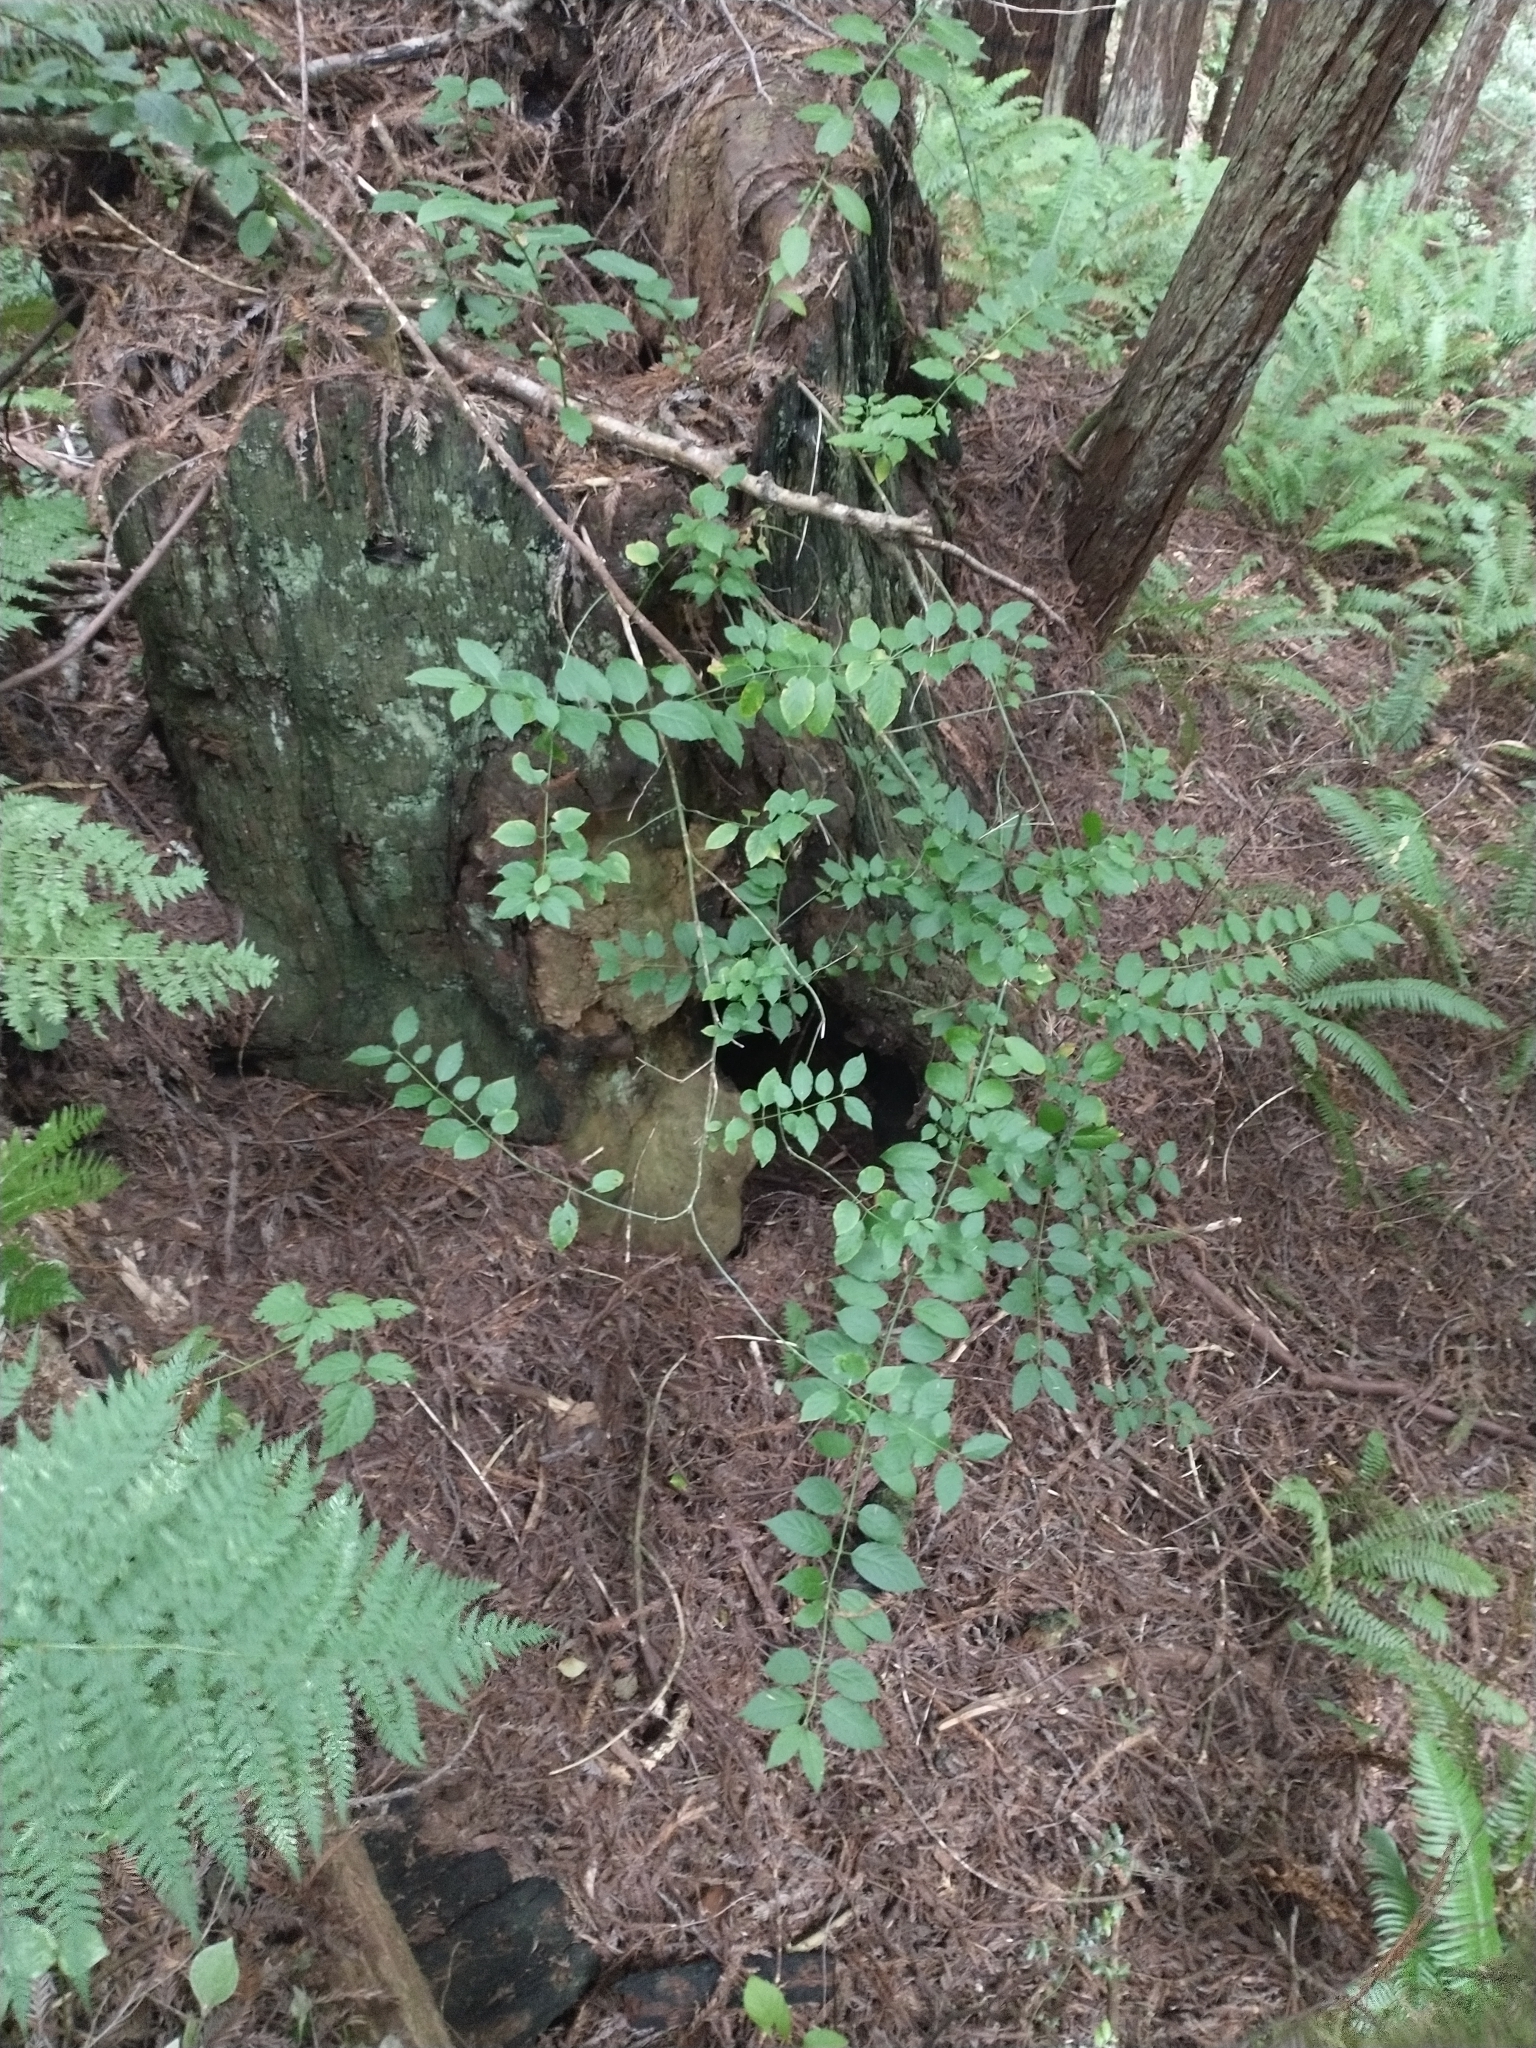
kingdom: Plantae
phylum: Tracheophyta
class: Magnoliopsida
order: Celastrales
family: Celastraceae
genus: Euonymus
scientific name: Euonymus occidentalis
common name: Western burningbush
